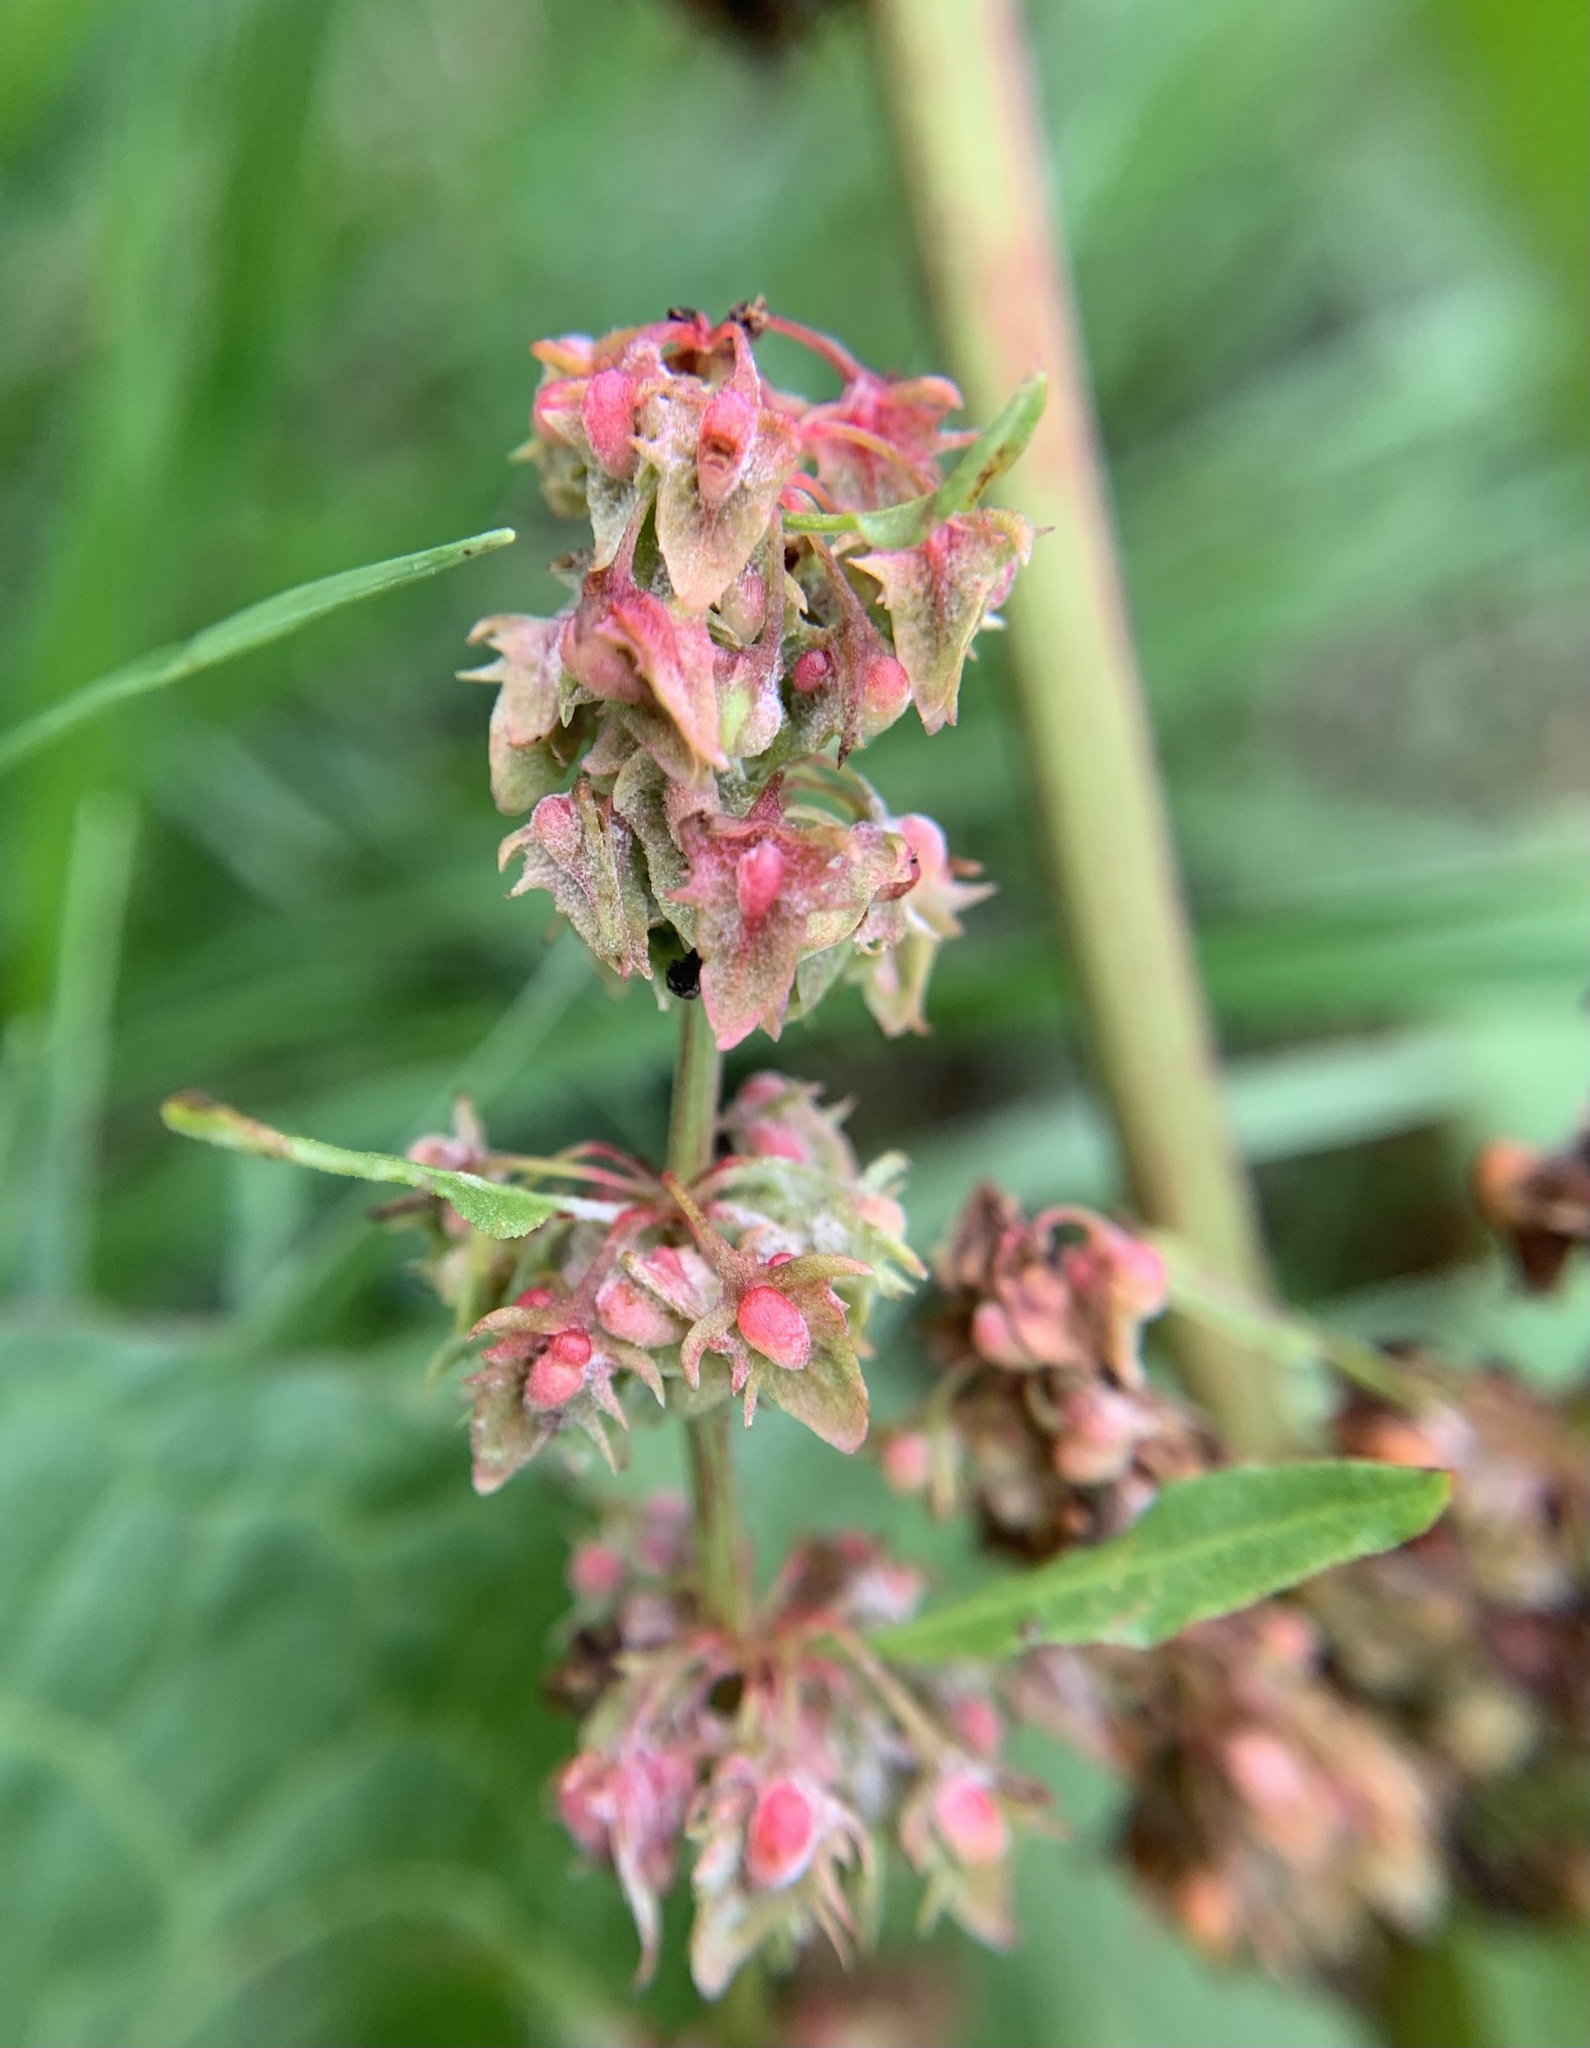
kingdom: Plantae
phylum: Tracheophyta
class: Magnoliopsida
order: Caryophyllales
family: Polygonaceae
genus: Rumex
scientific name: Rumex obtusifolius
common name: Bitter dock
